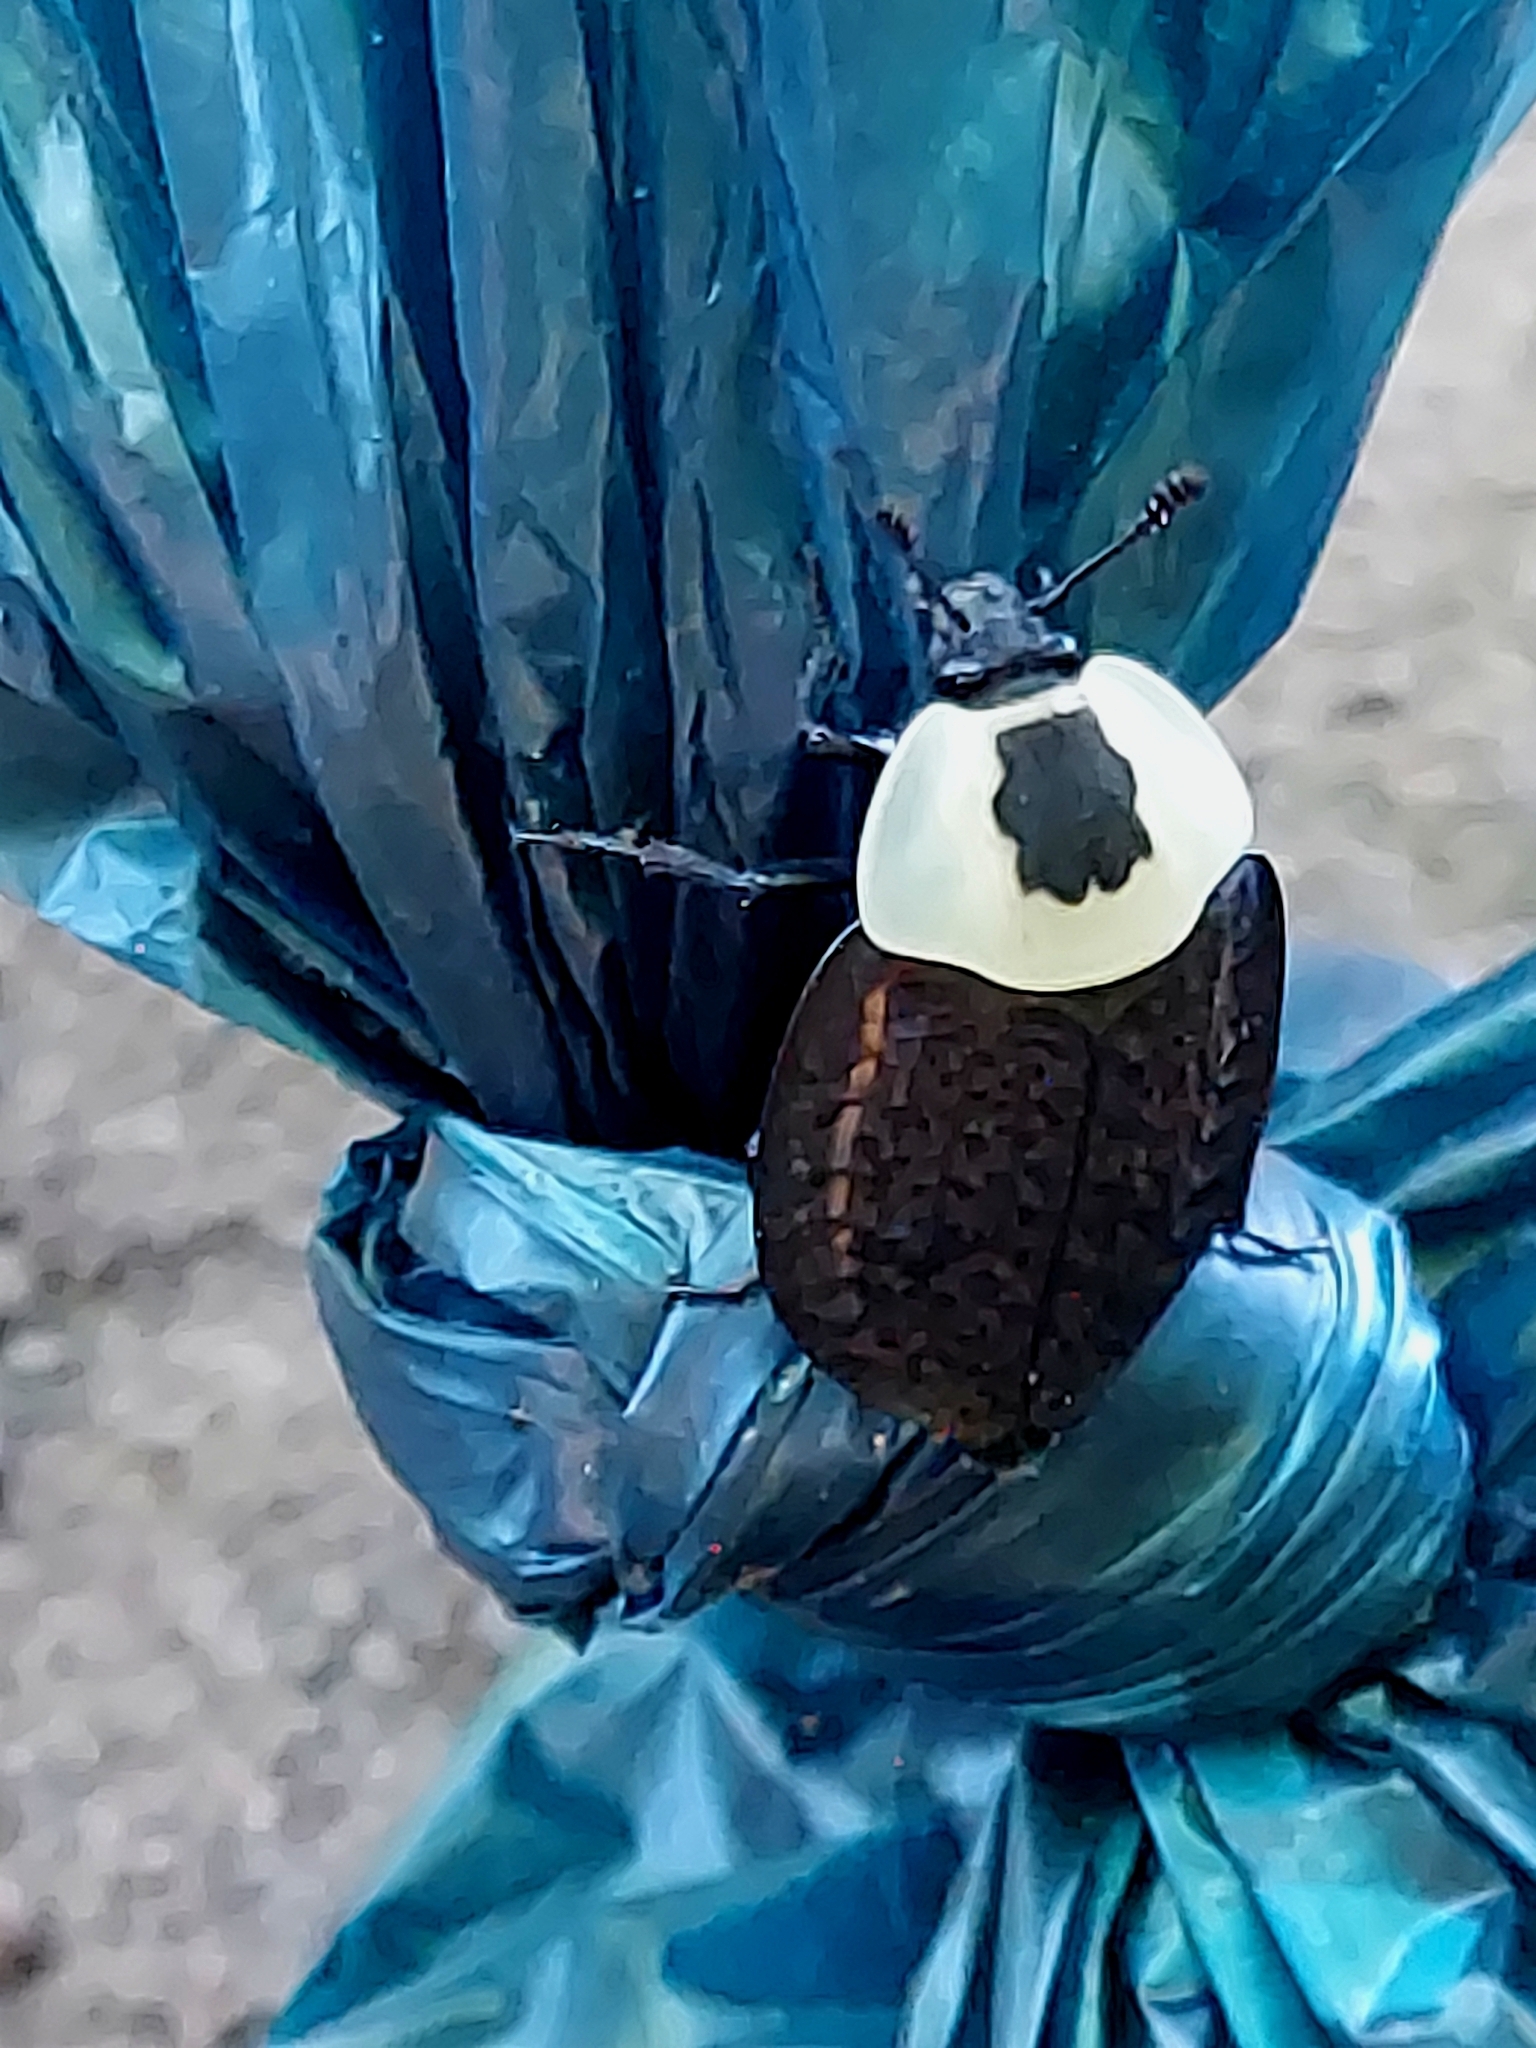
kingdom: Animalia
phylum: Arthropoda
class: Insecta
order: Coleoptera
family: Staphylinidae
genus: Necrophila
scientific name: Necrophila americana
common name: American carrion beetle
